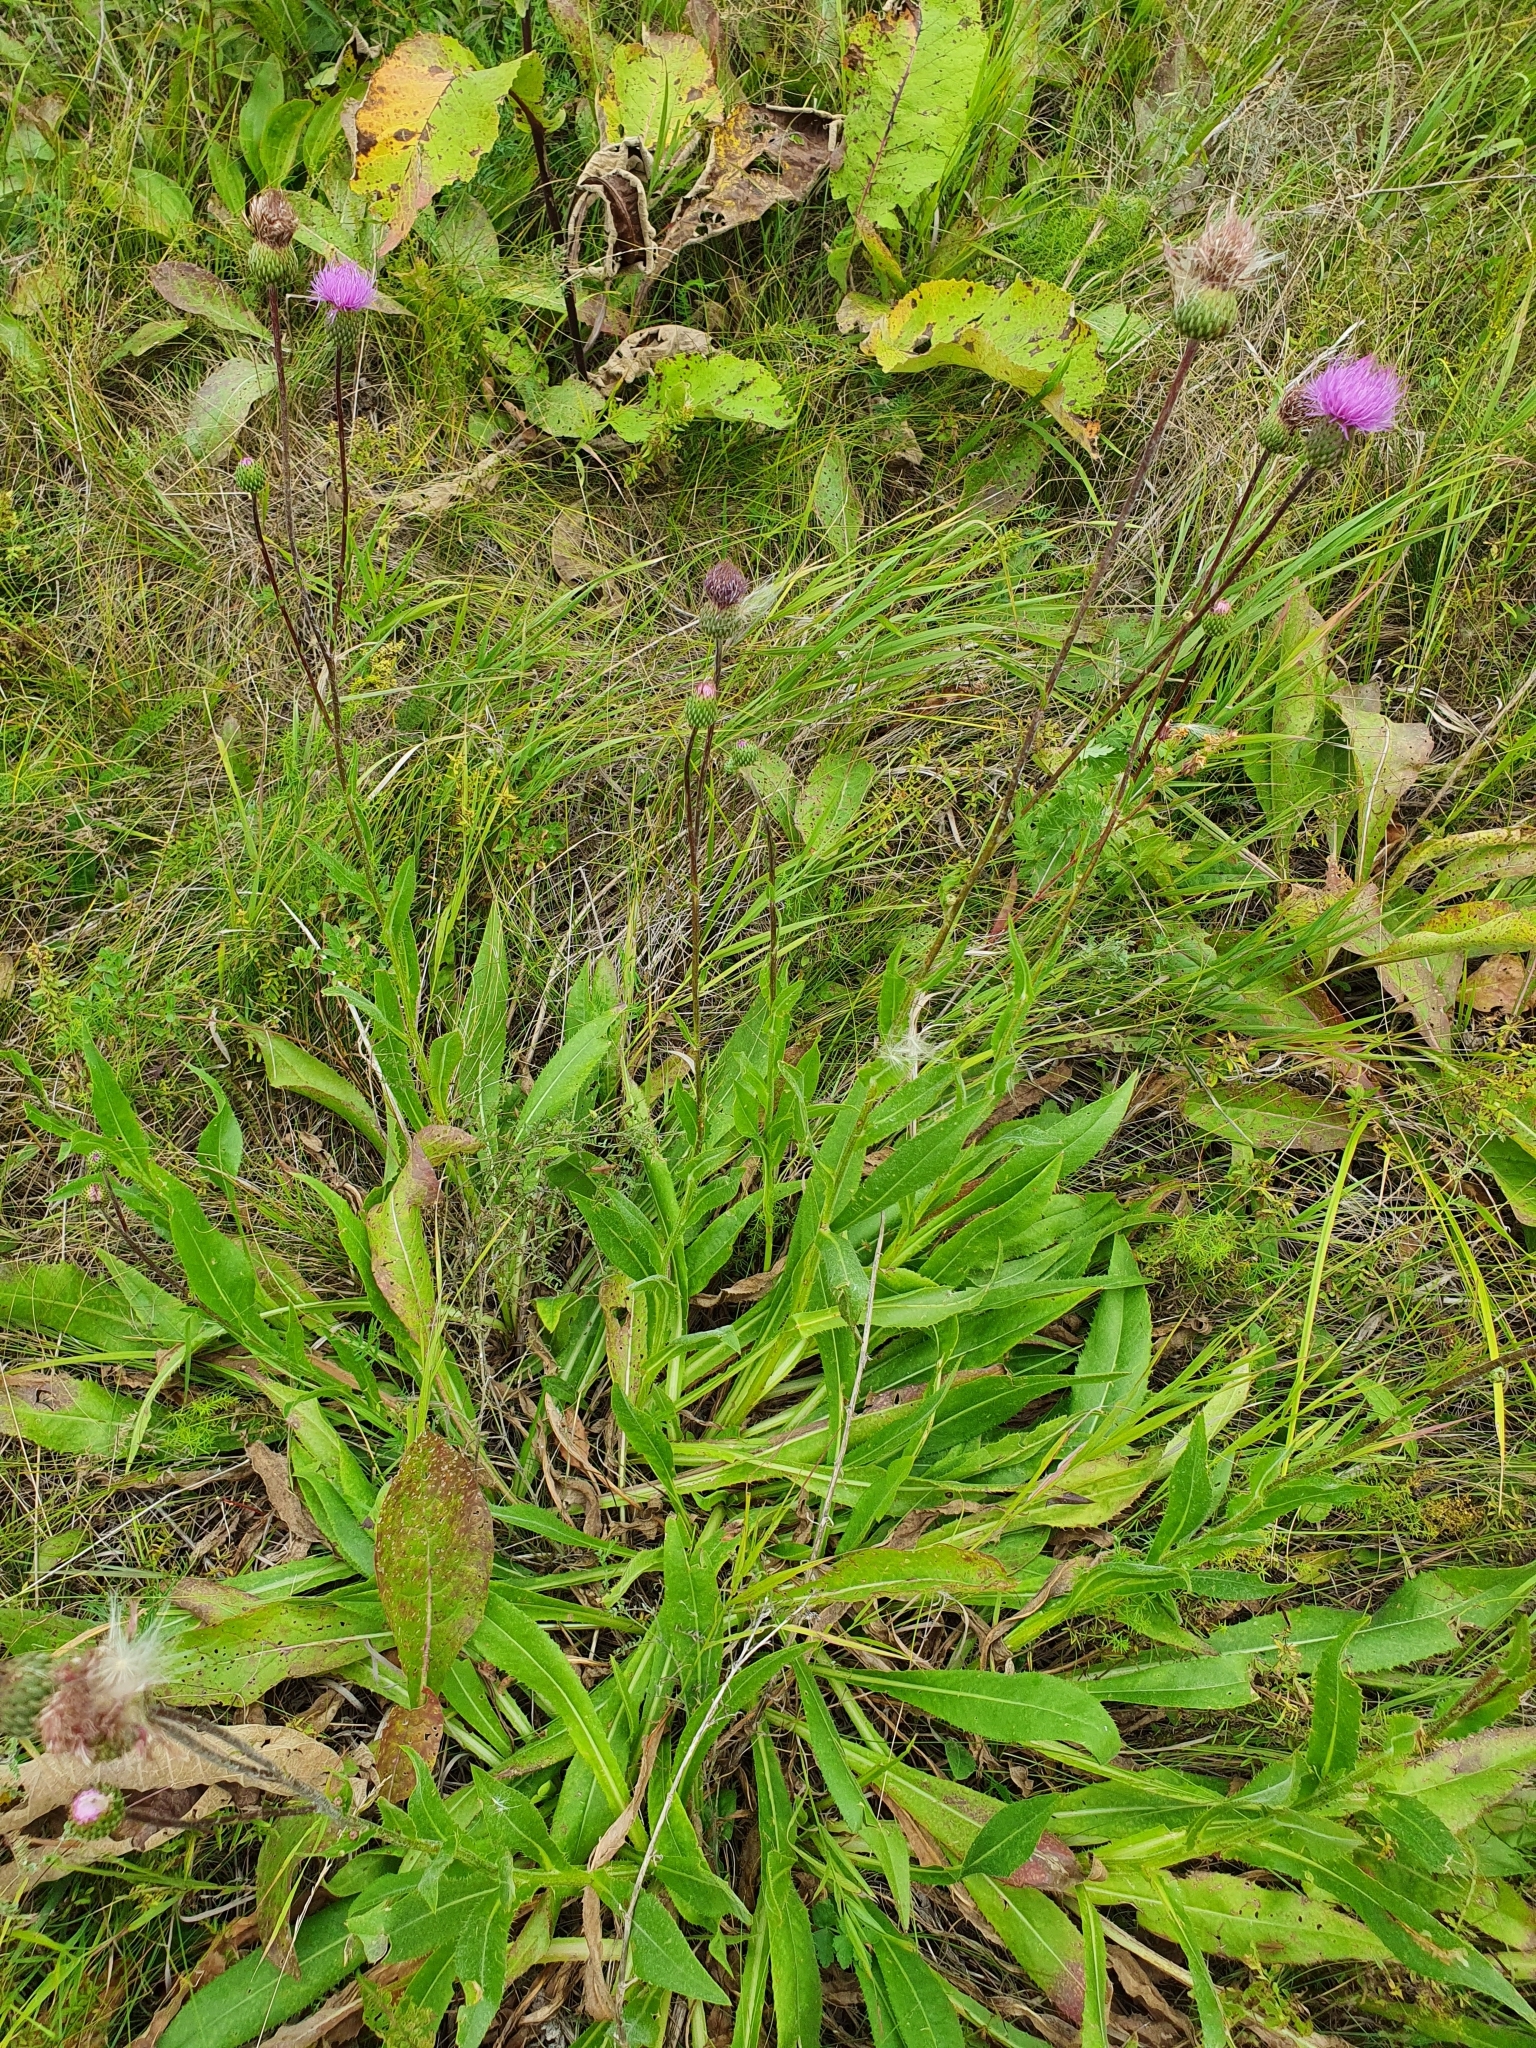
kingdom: Plantae
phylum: Tracheophyta
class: Magnoliopsida
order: Asterales
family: Asteraceae
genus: Cirsium
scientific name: Cirsium canum
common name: Queen anne's thistle
